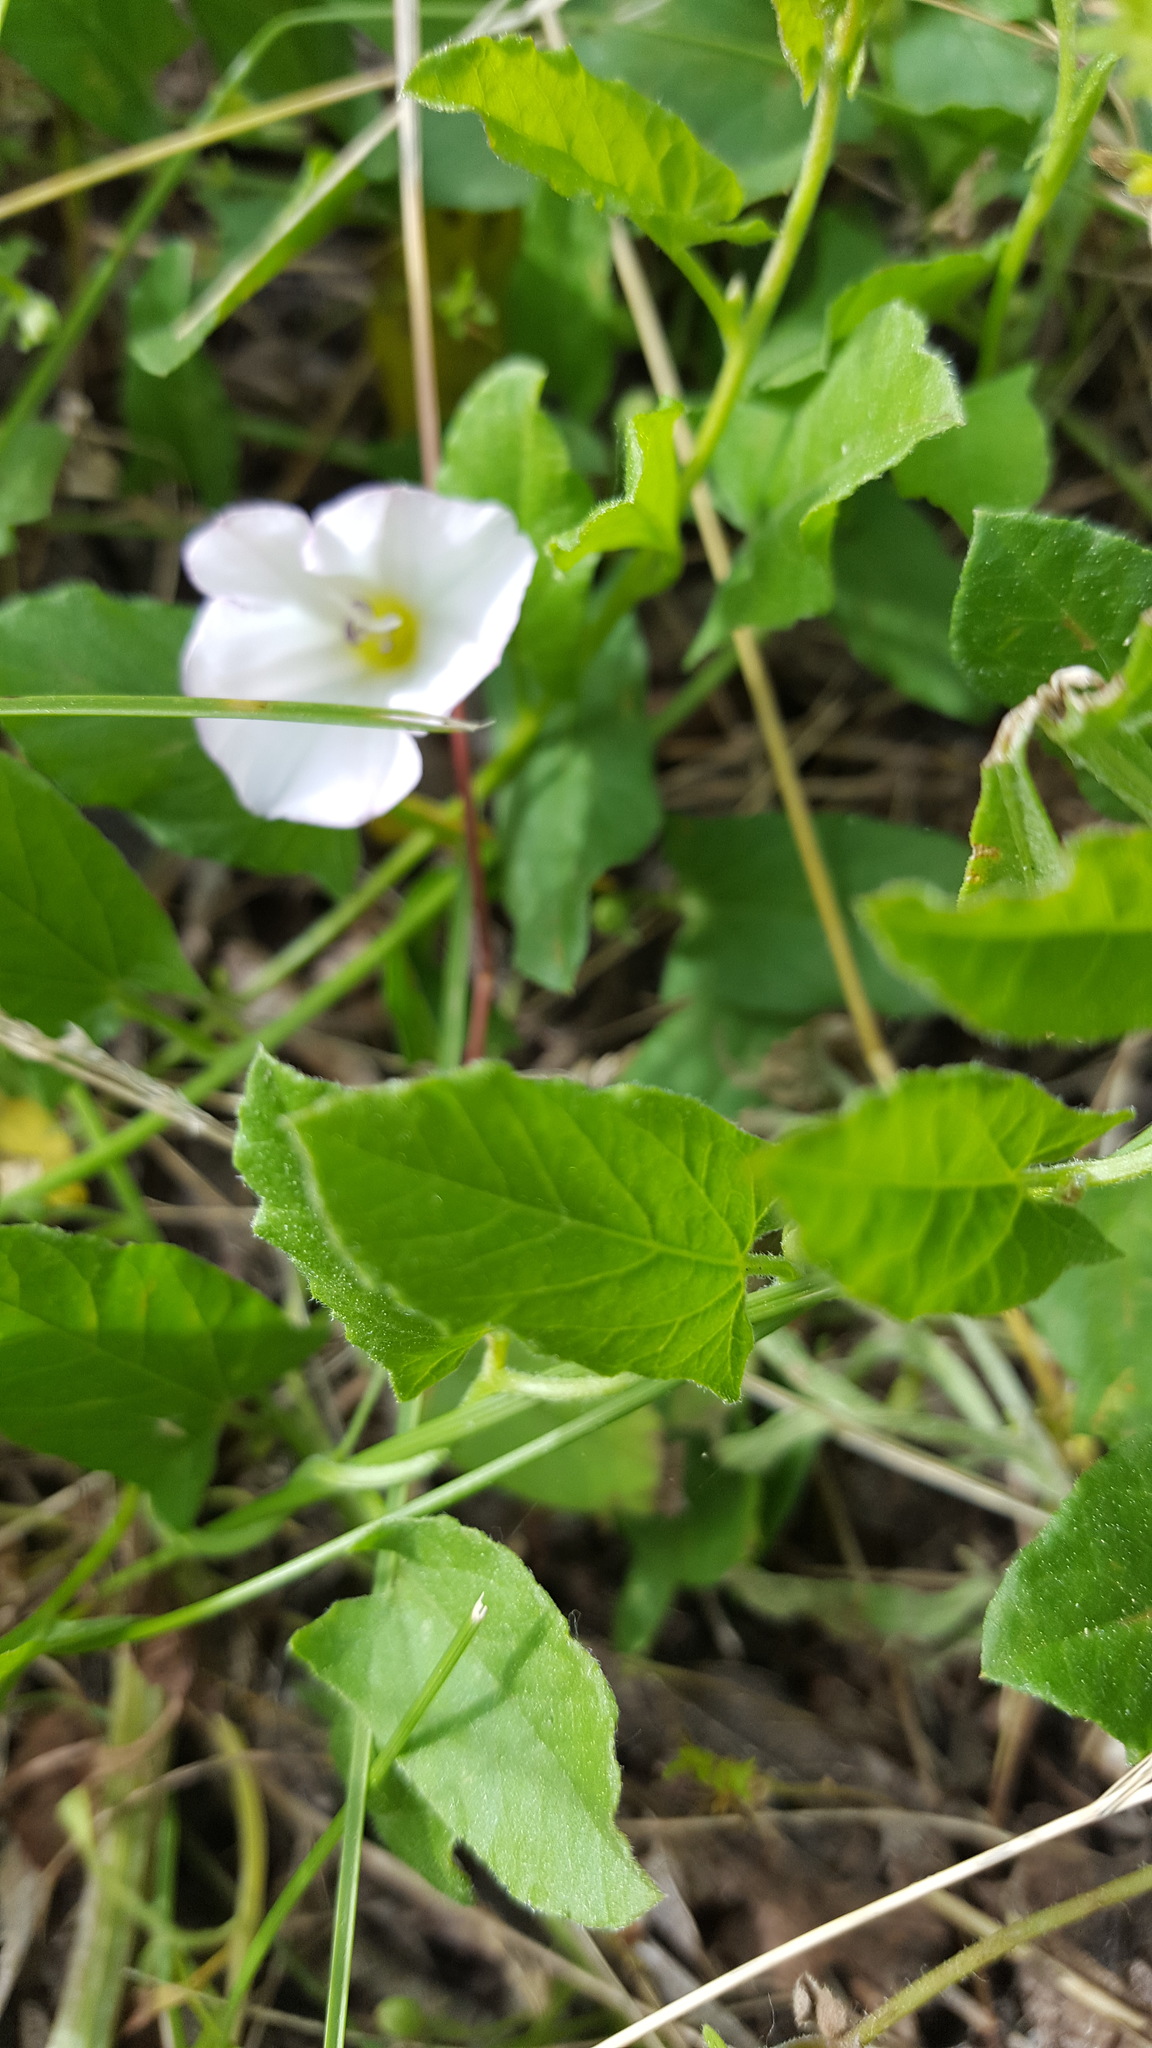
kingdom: Plantae
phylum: Tracheophyta
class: Magnoliopsida
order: Solanales
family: Convolvulaceae
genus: Convolvulus
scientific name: Convolvulus arvensis
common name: Field bindweed
